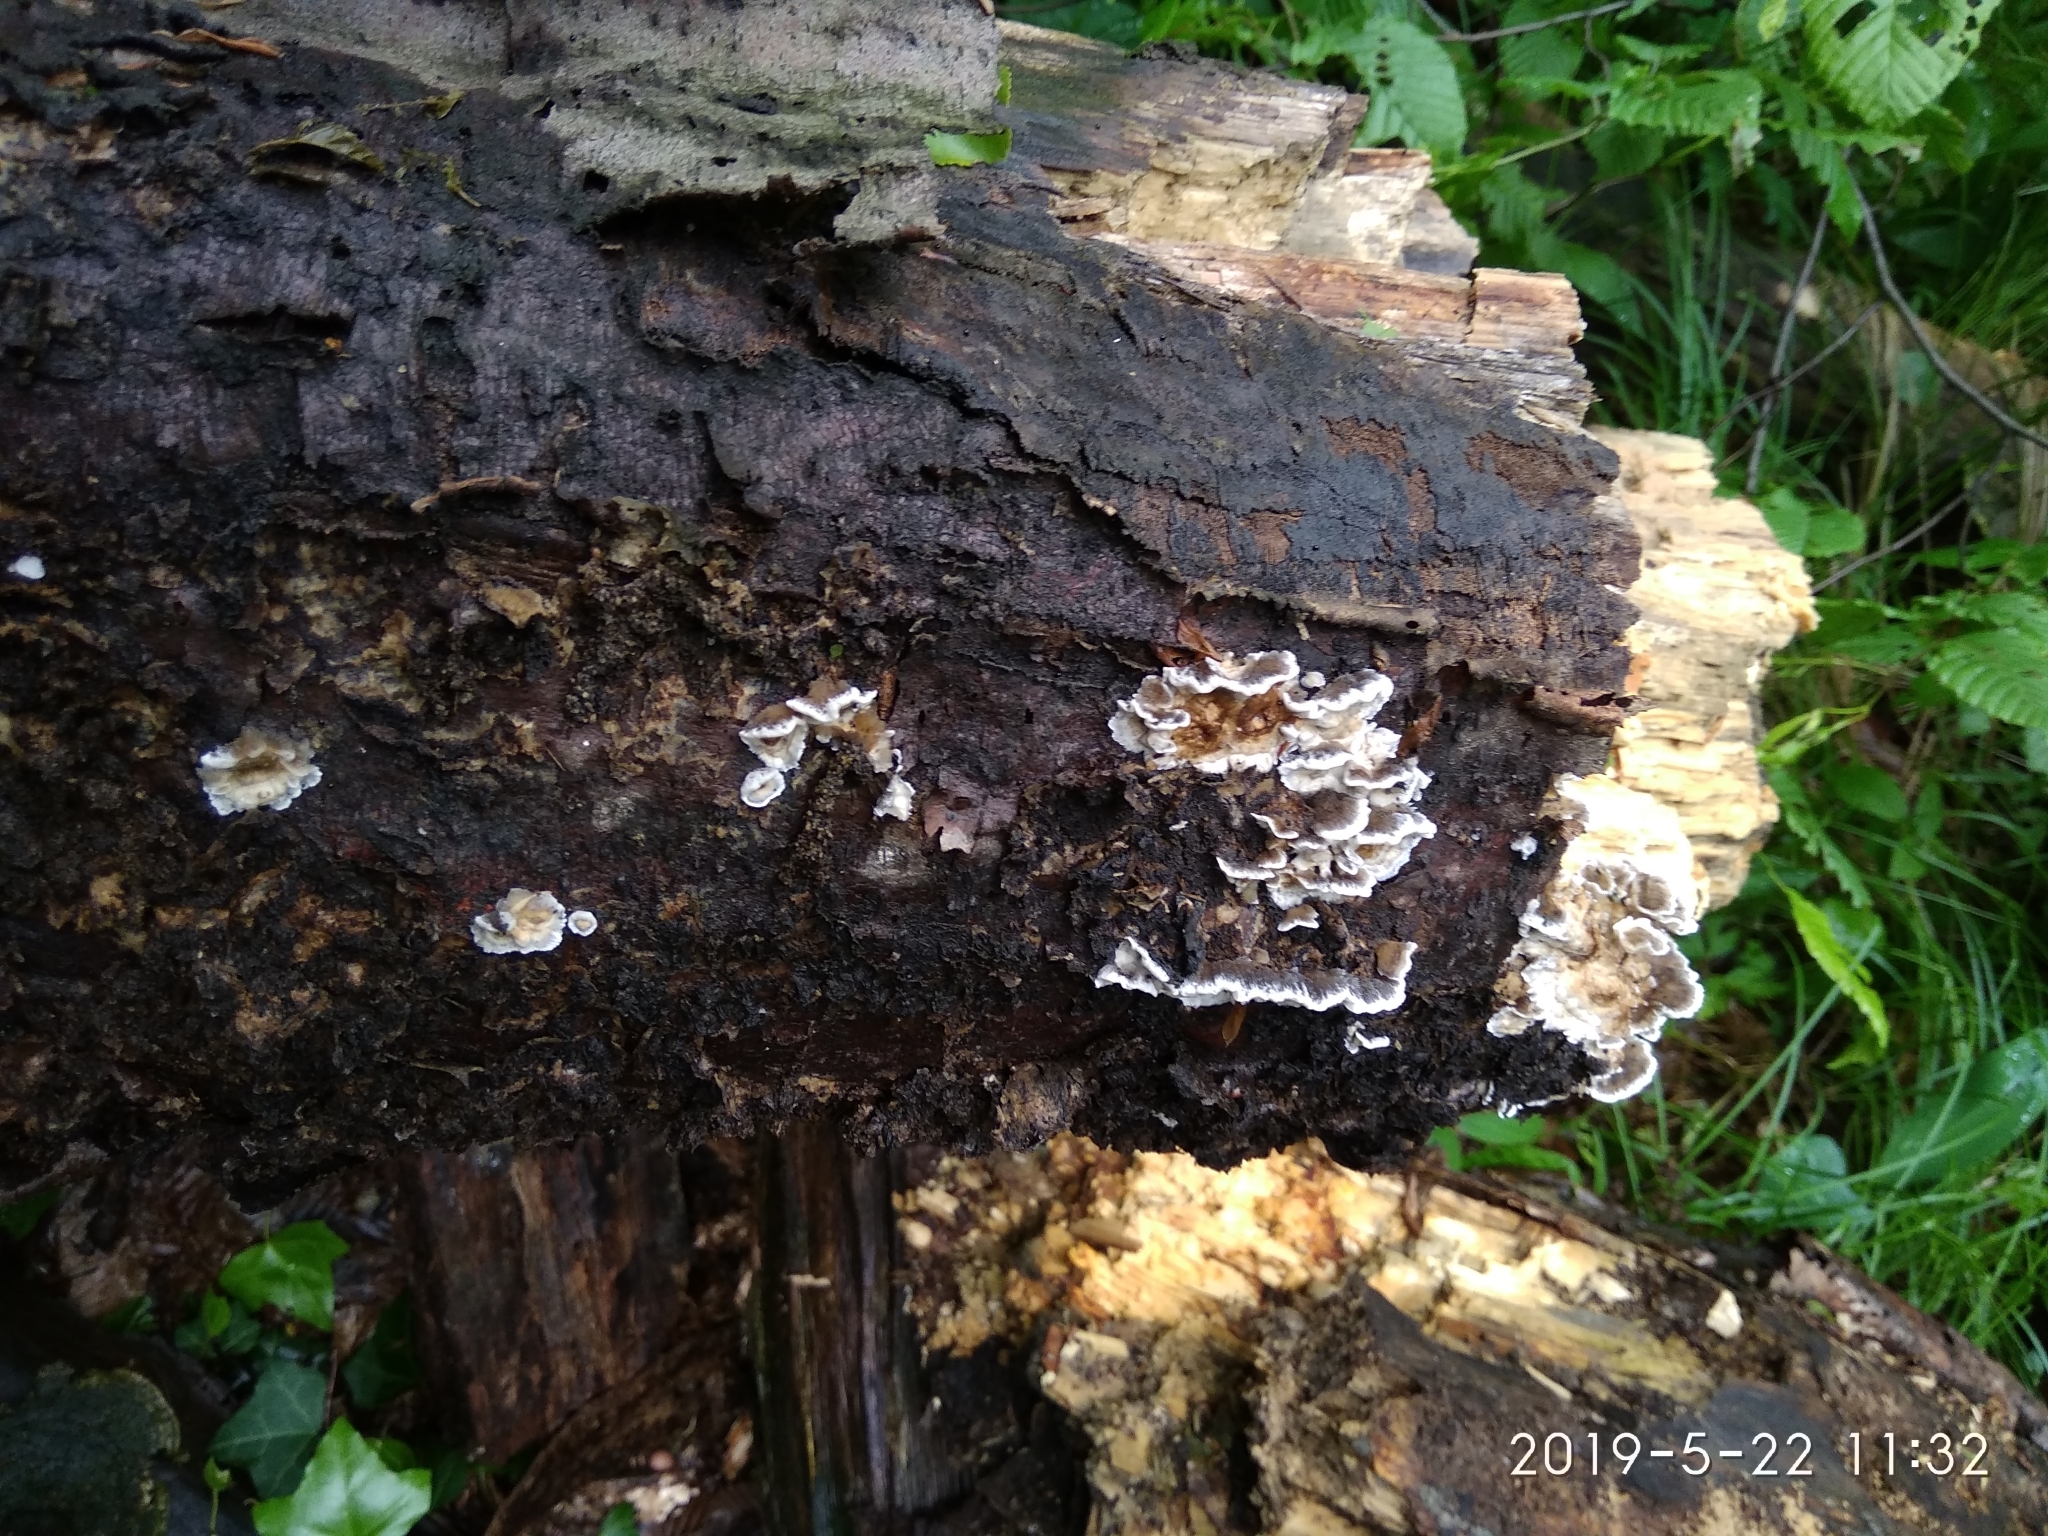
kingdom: Fungi
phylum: Basidiomycota
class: Agaricomycetes
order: Polyporales
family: Phanerochaetaceae
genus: Bjerkandera
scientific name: Bjerkandera adusta
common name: Smoky bracket
